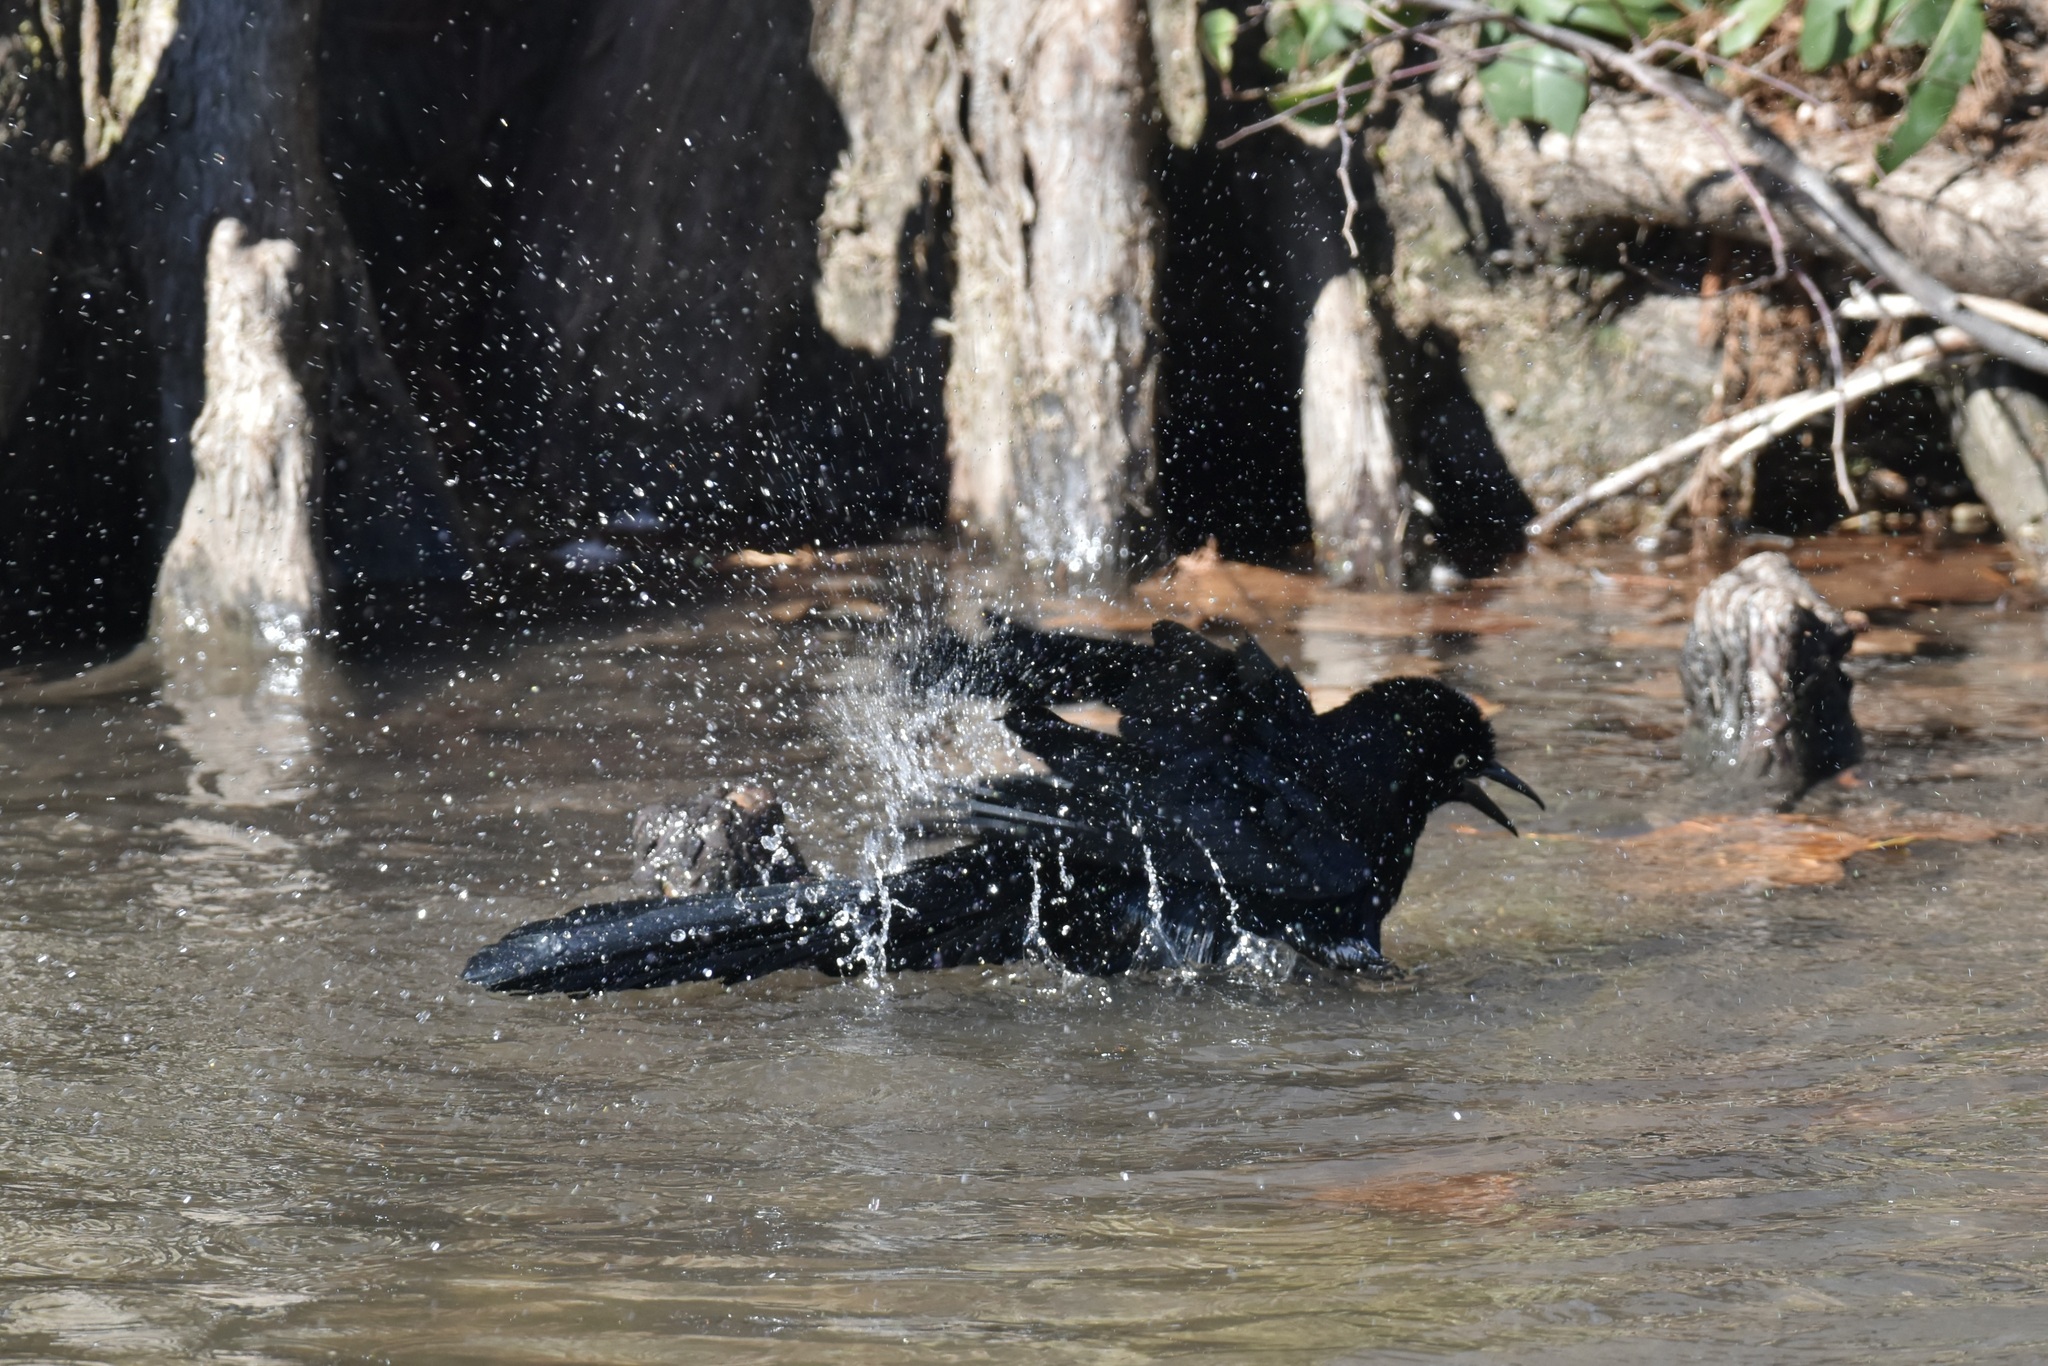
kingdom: Animalia
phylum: Chordata
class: Aves
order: Passeriformes
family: Icteridae
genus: Quiscalus
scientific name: Quiscalus mexicanus
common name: Great-tailed grackle
